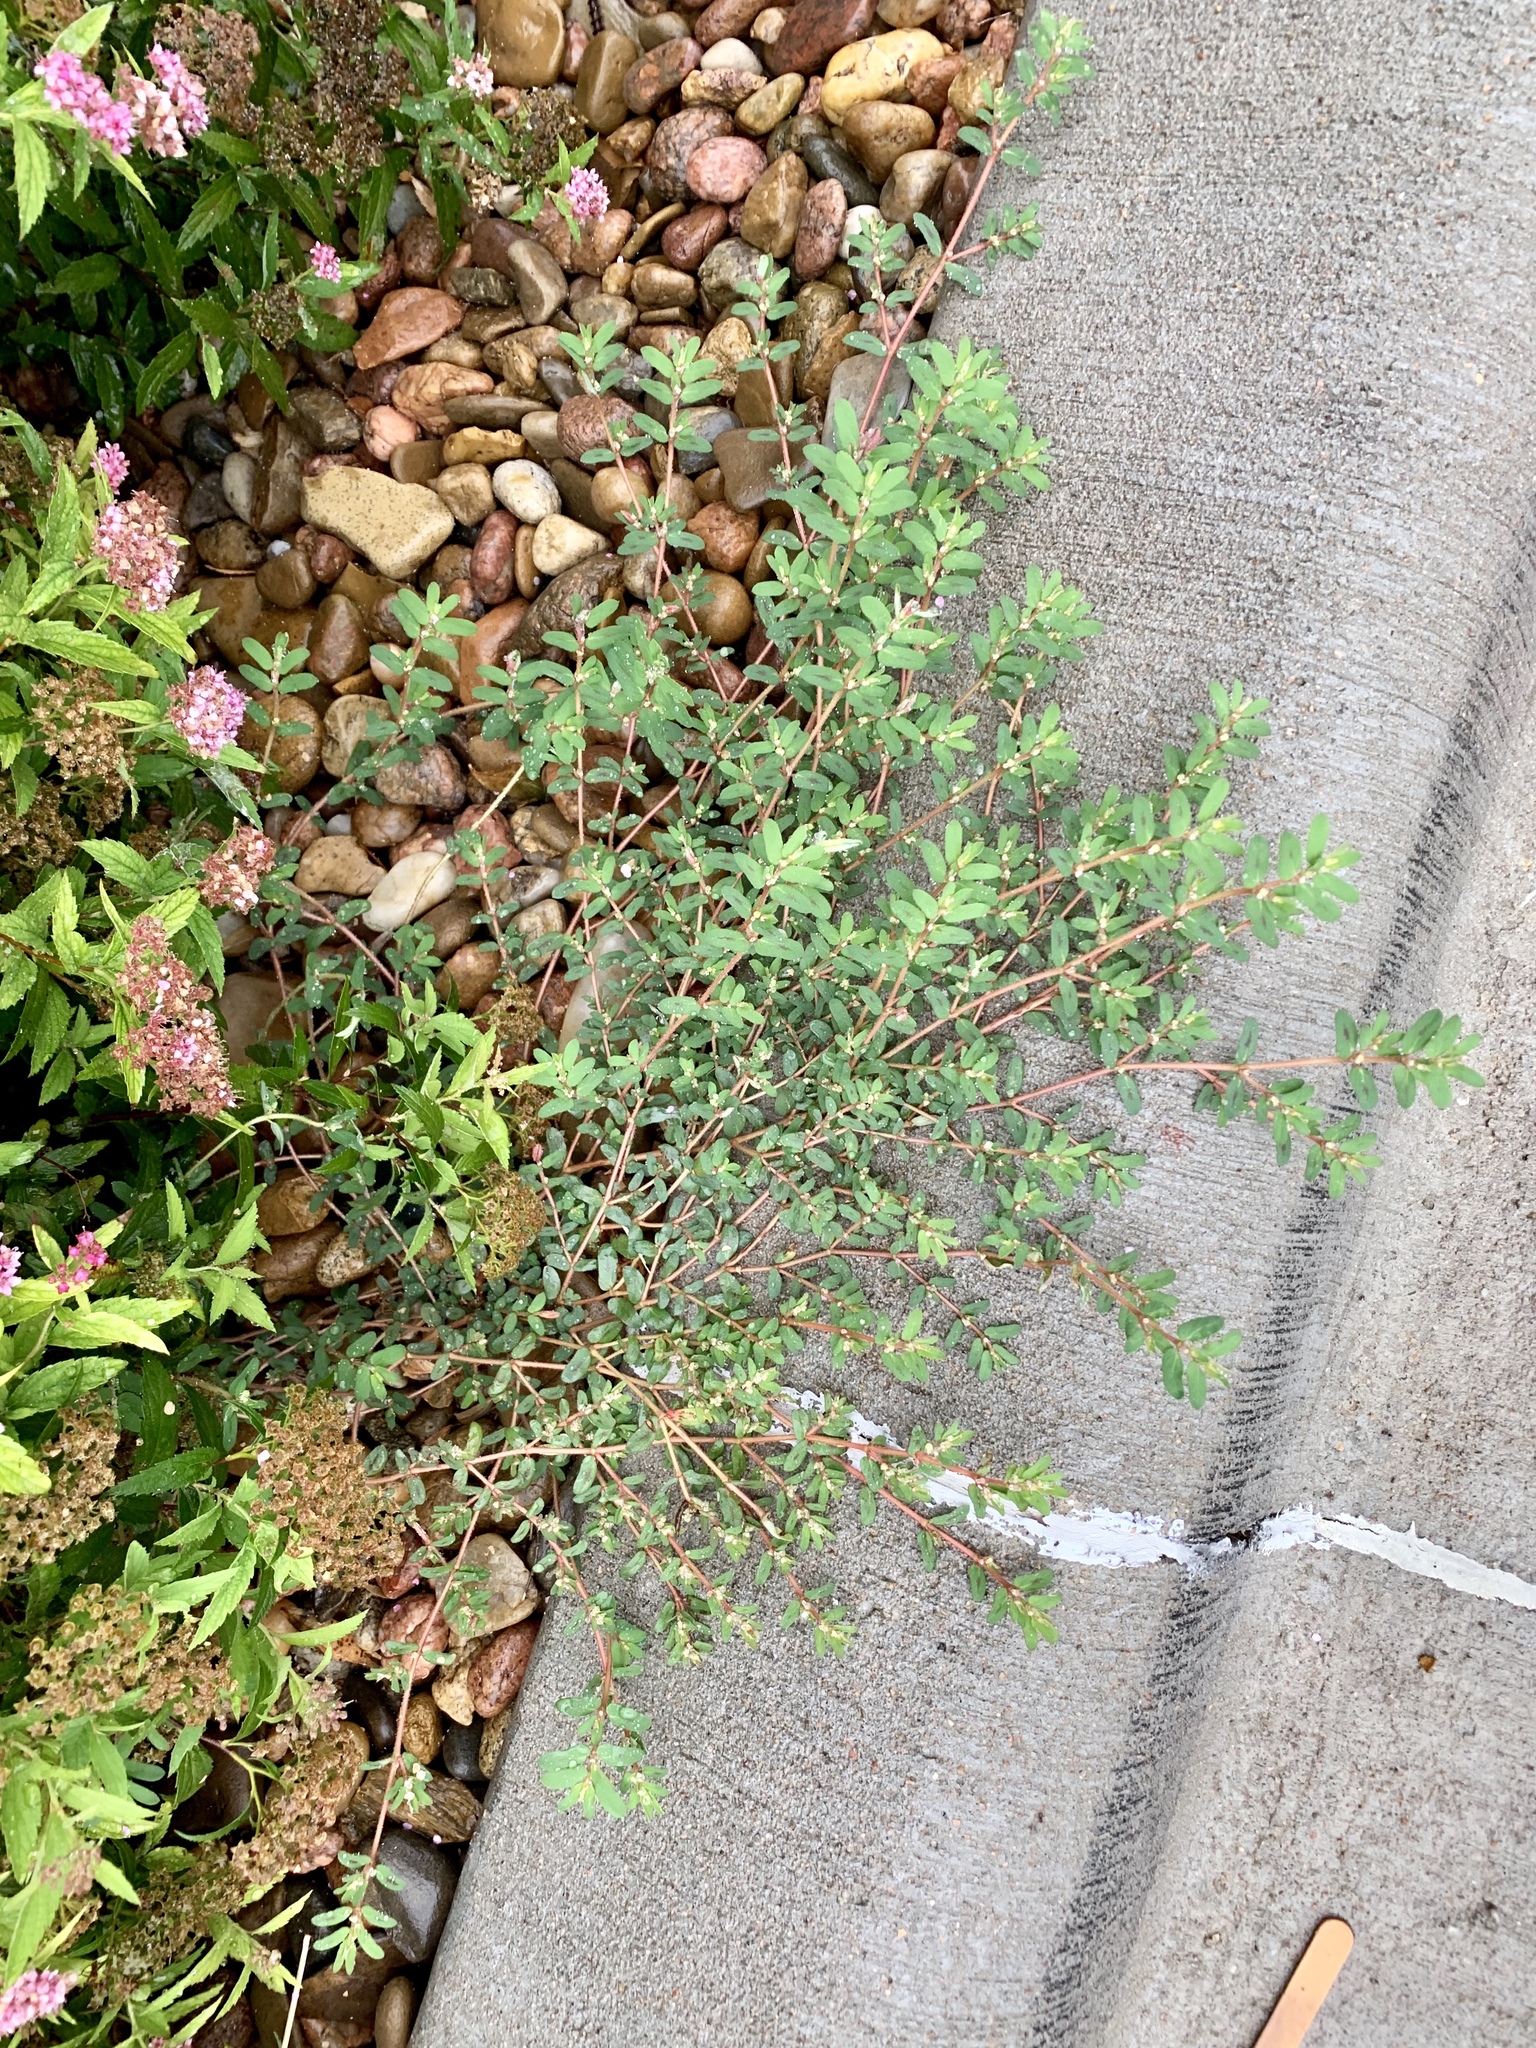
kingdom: Plantae
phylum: Tracheophyta
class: Magnoliopsida
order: Malpighiales
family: Euphorbiaceae
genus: Euphorbia
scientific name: Euphorbia maculata
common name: Spotted spurge
